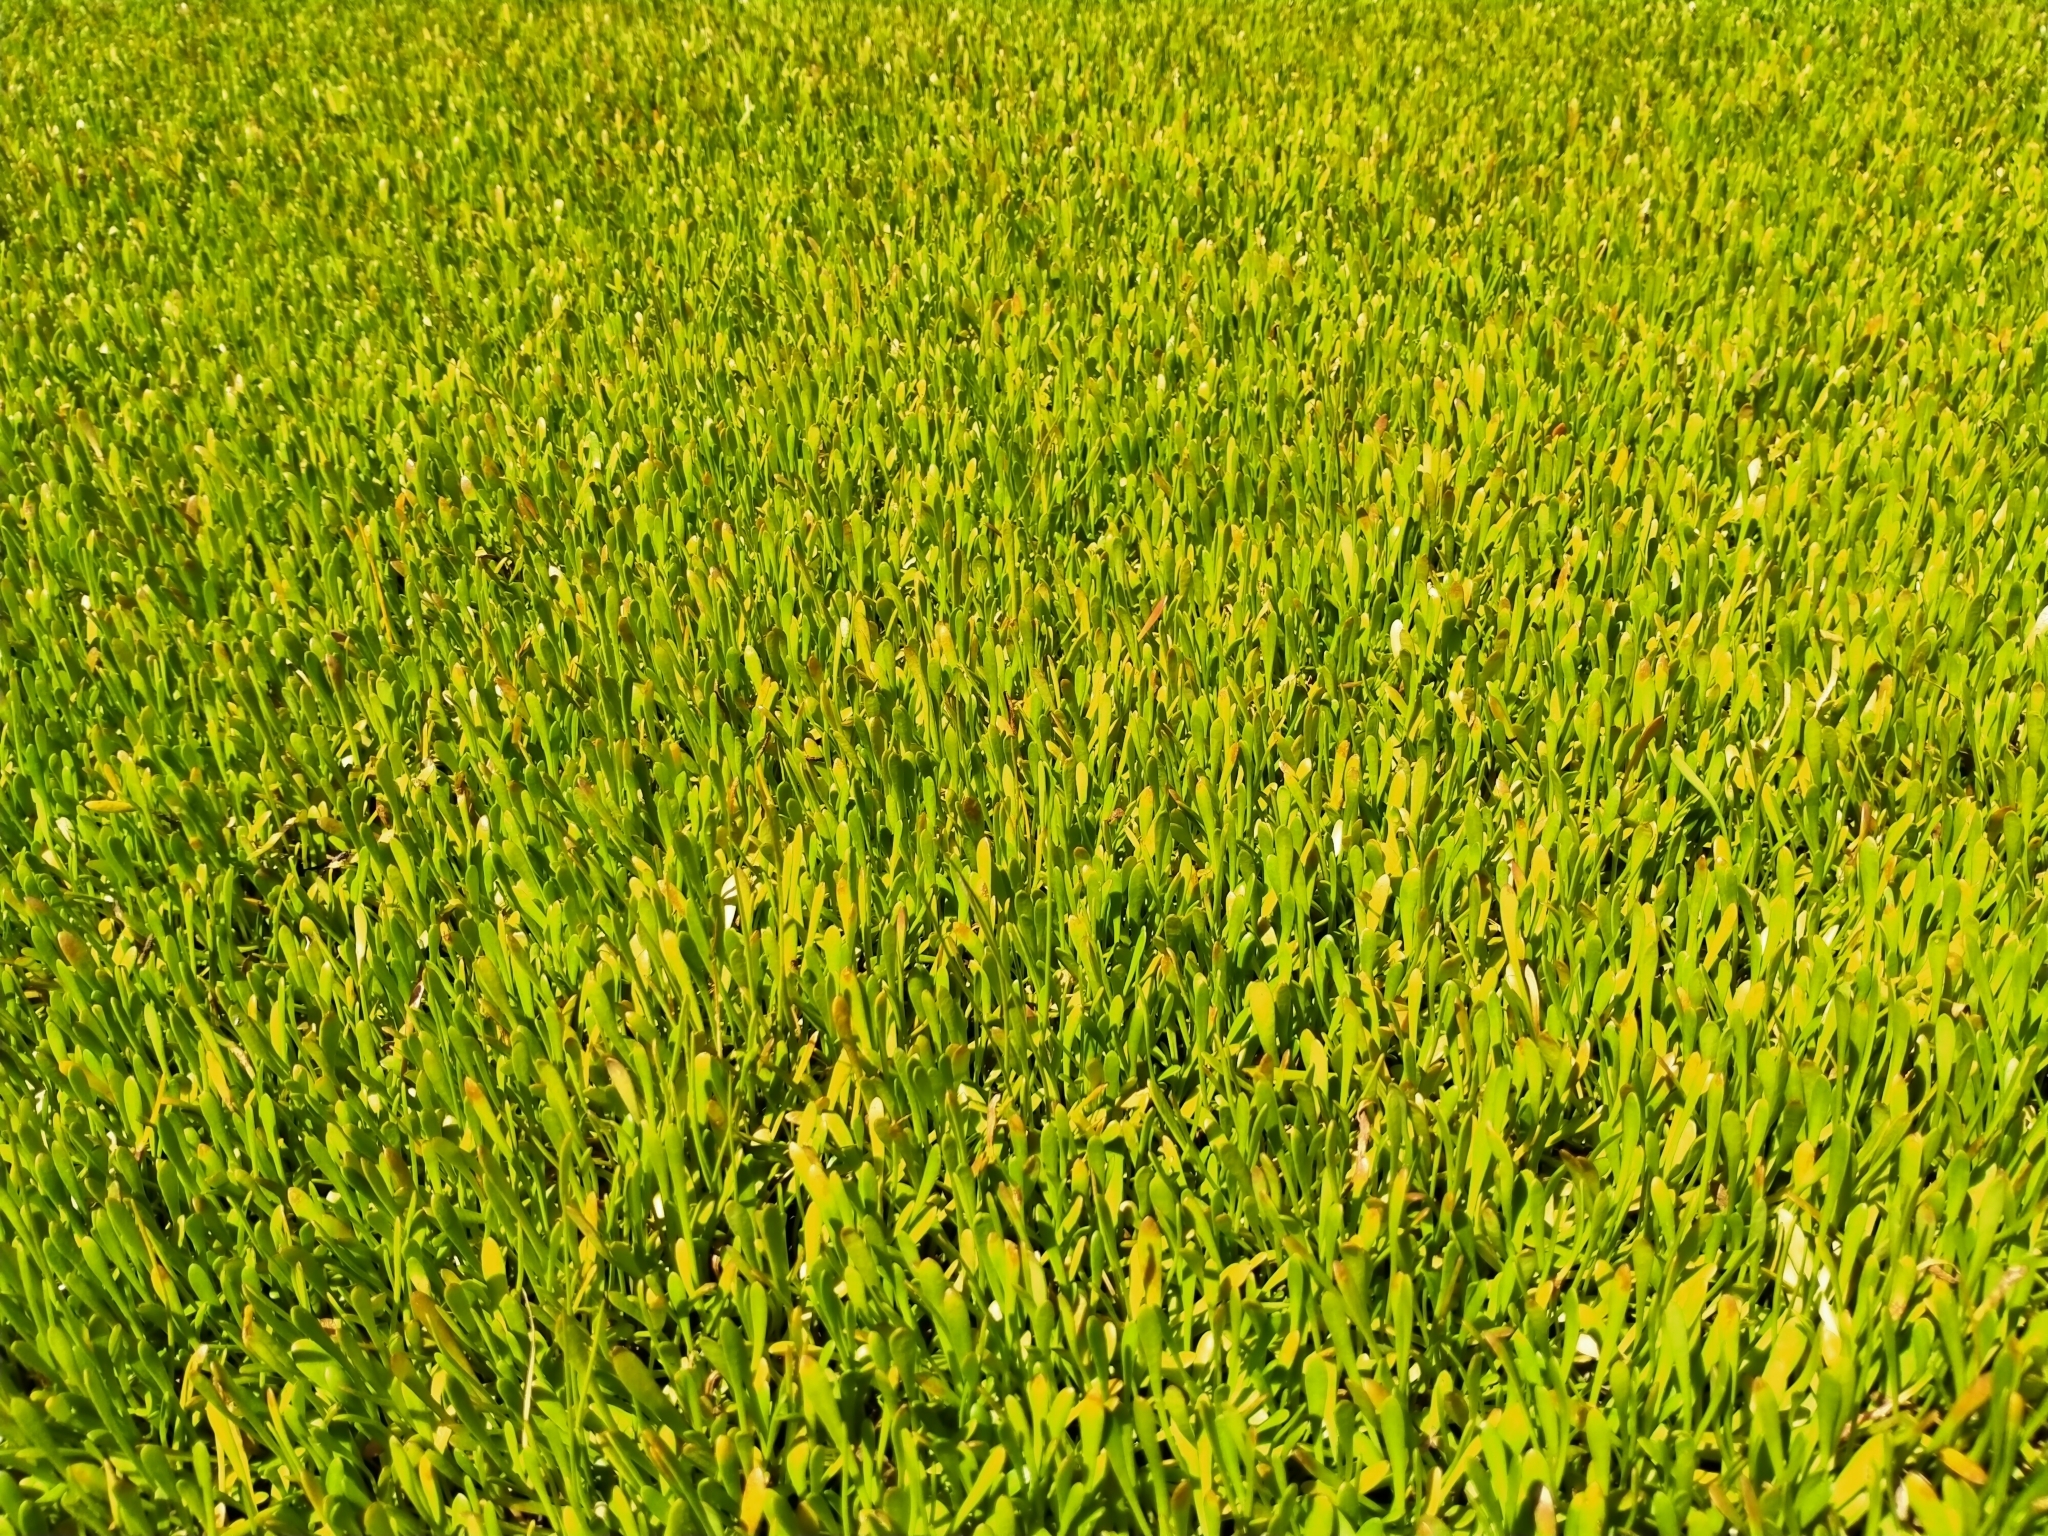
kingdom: Plantae
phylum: Tracheophyta
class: Magnoliopsida
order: Asterales
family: Goodeniaceae
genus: Goodenia
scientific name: Goodenia radicans
